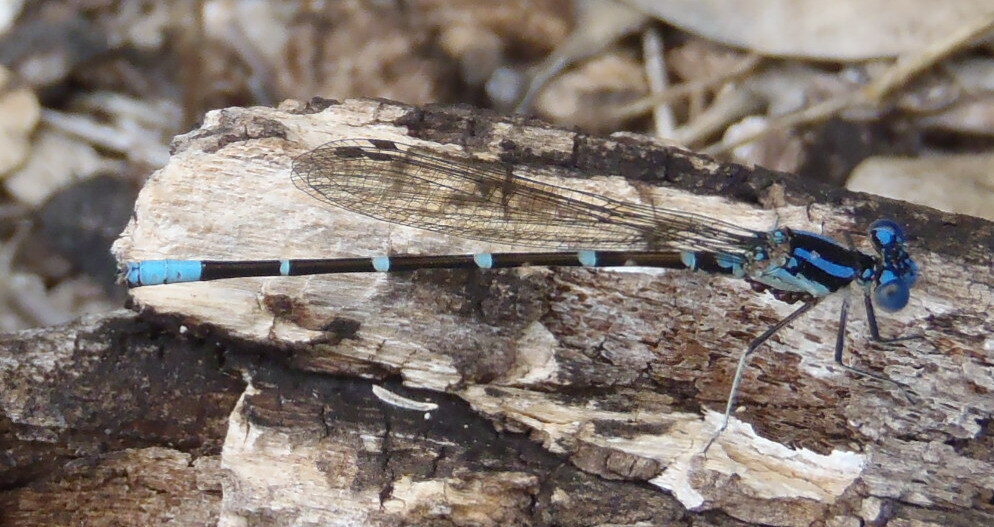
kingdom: Animalia
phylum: Arthropoda
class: Insecta
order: Odonata
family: Coenagrionidae
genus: Argia
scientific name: Argia sedula
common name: Blue-ringed dancer
